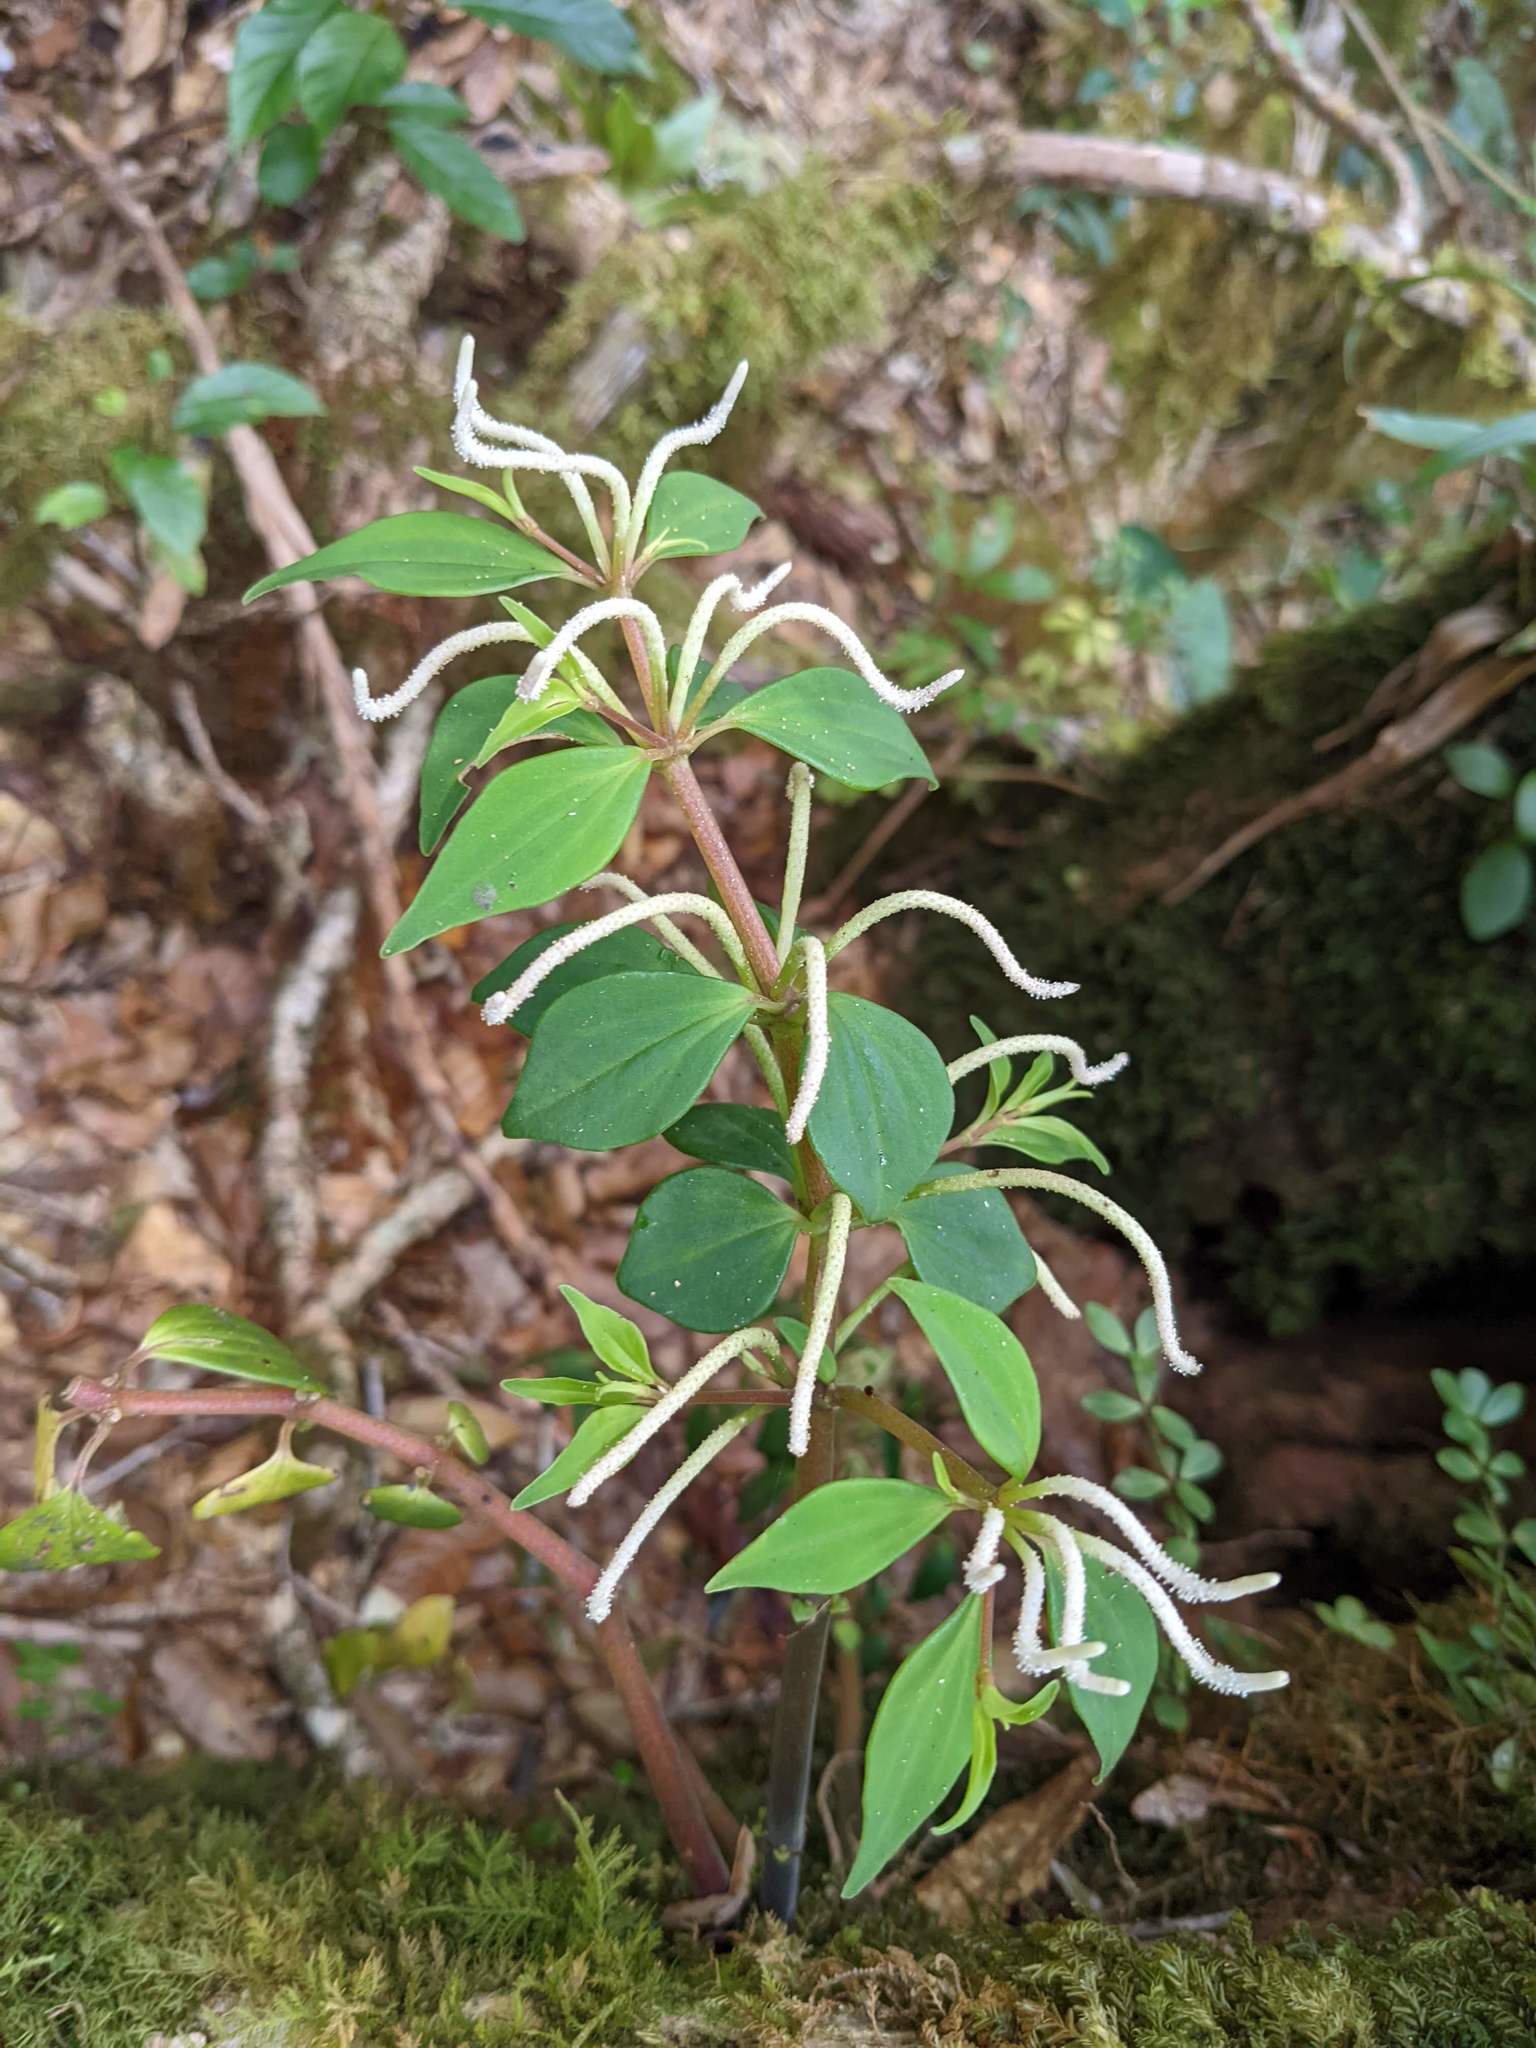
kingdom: Plantae
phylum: Tracheophyta
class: Magnoliopsida
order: Piperales
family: Piperaceae
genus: Peperomia
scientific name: Peperomia palmana
